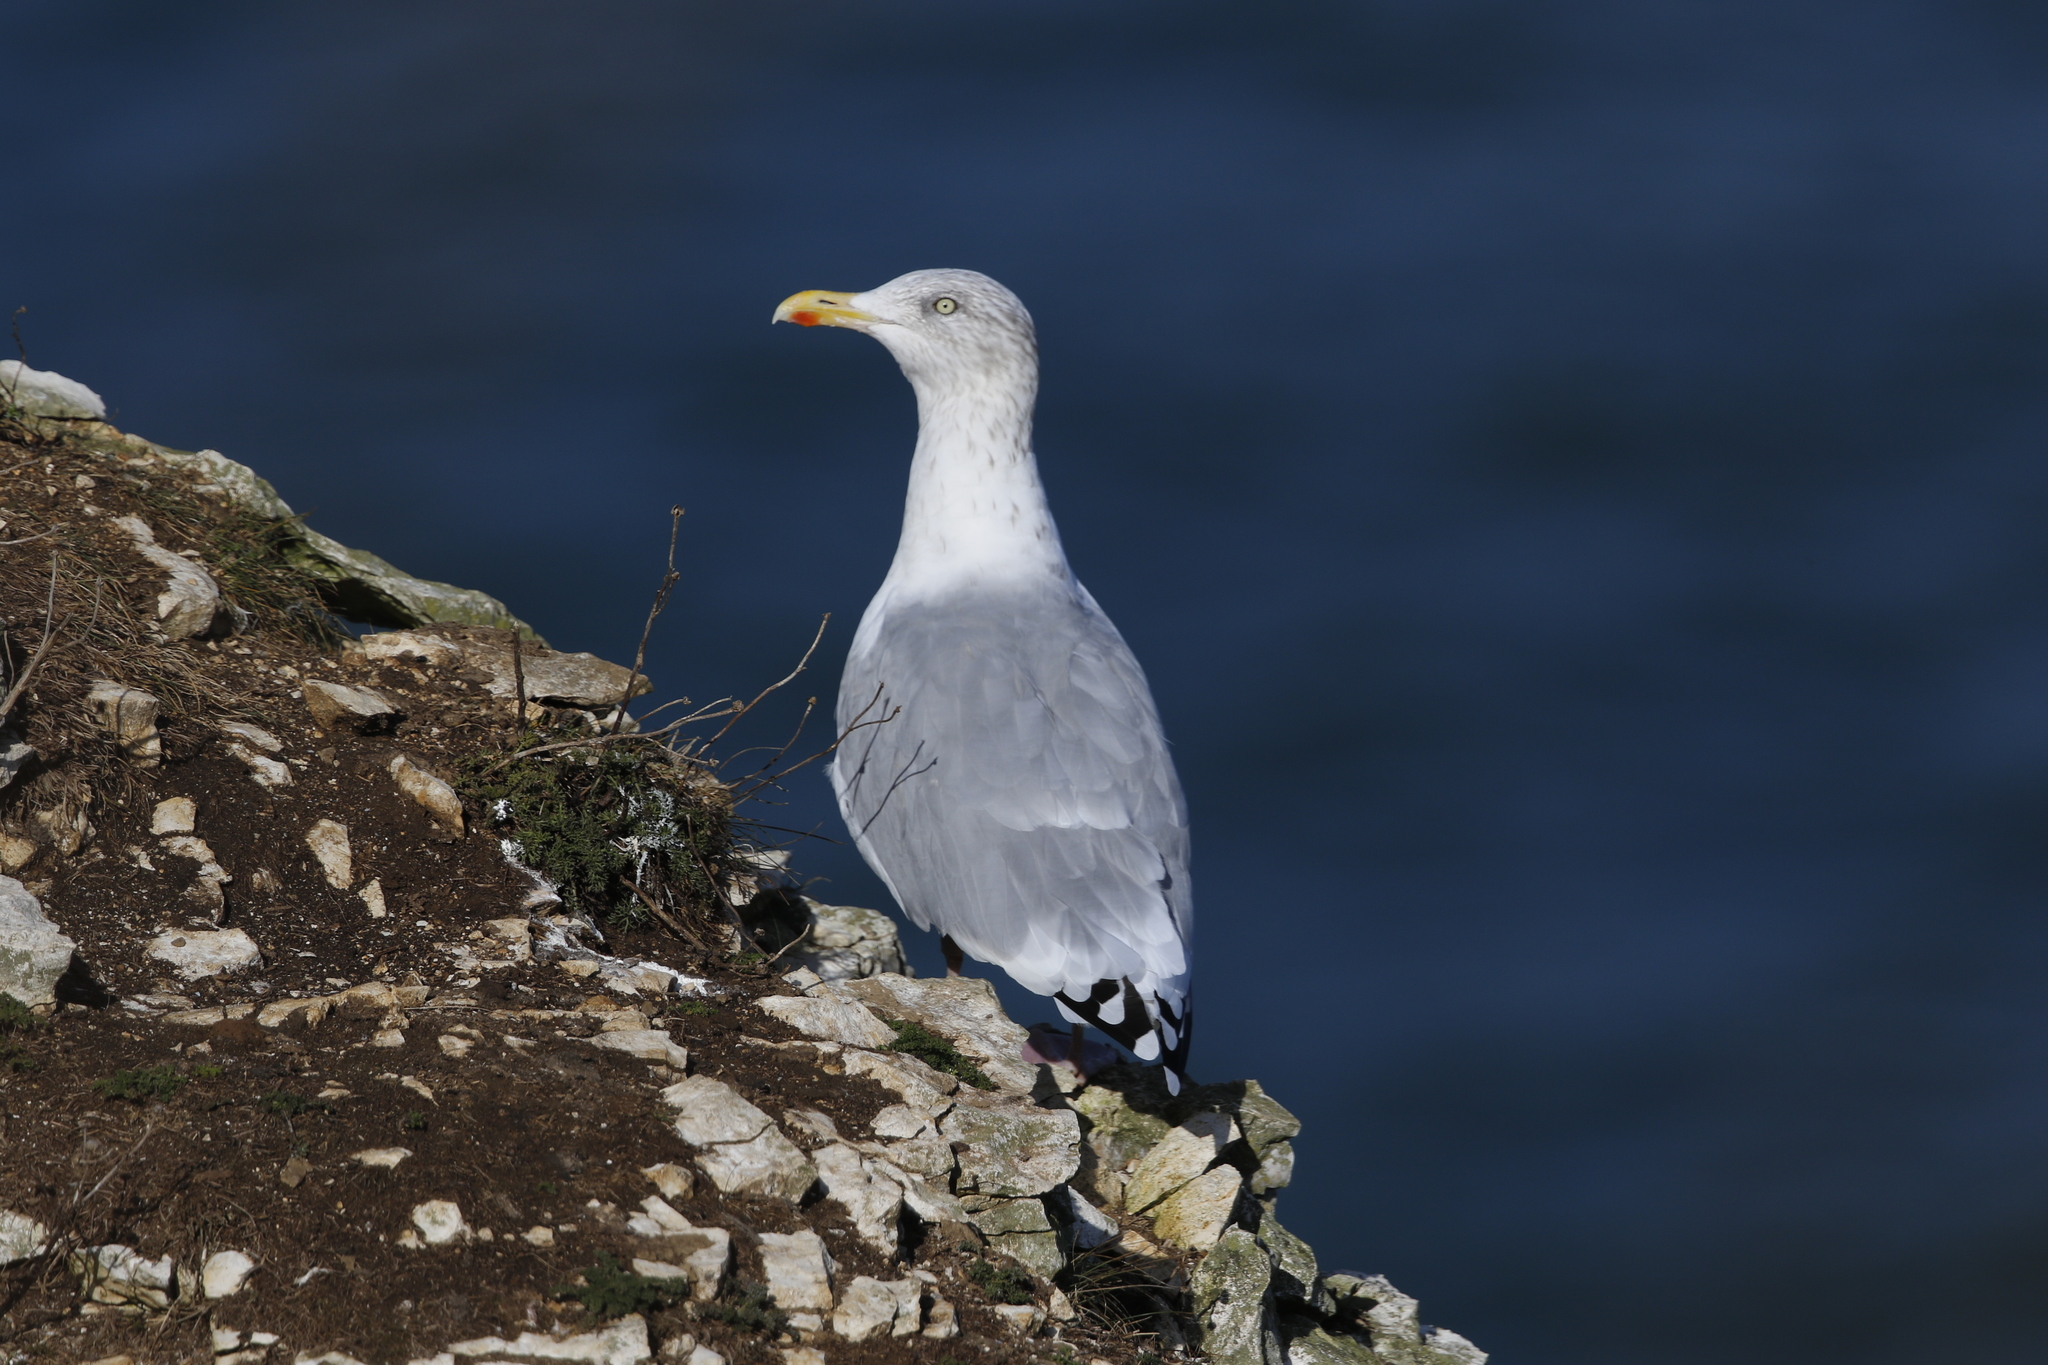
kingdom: Animalia
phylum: Chordata
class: Aves
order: Charadriiformes
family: Laridae
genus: Larus
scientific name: Larus argentatus
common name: Herring gull
